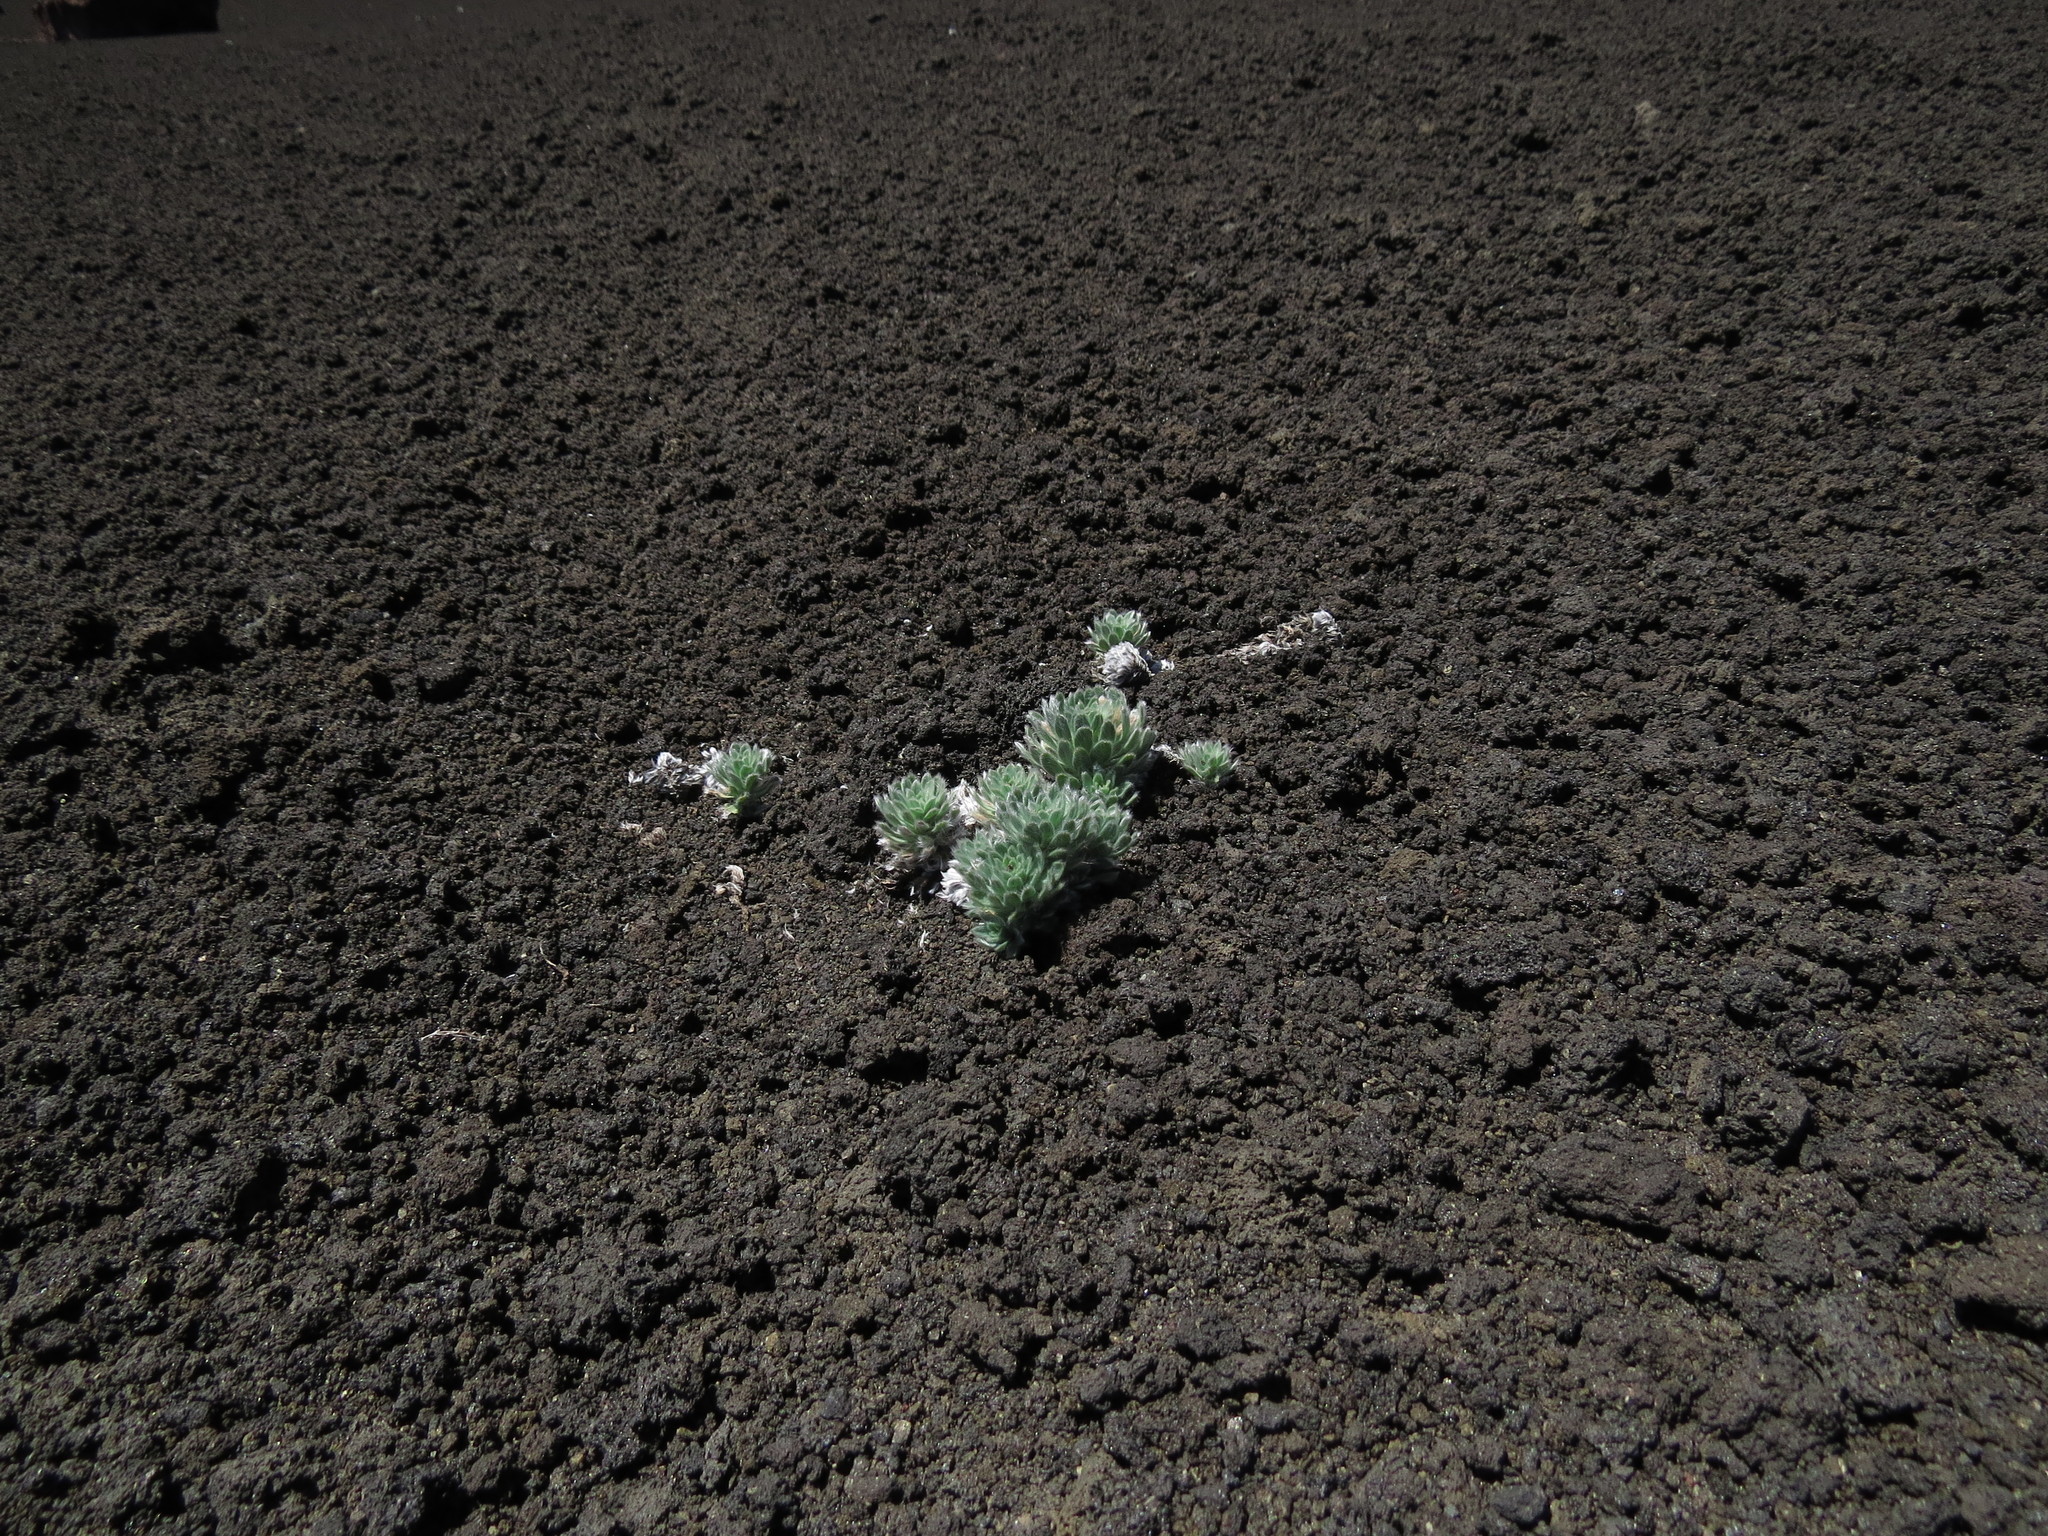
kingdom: Plantae
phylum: Tracheophyta
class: Magnoliopsida
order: Asterales
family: Asteraceae
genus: Chaetanthera
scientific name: Chaetanthera villosa
